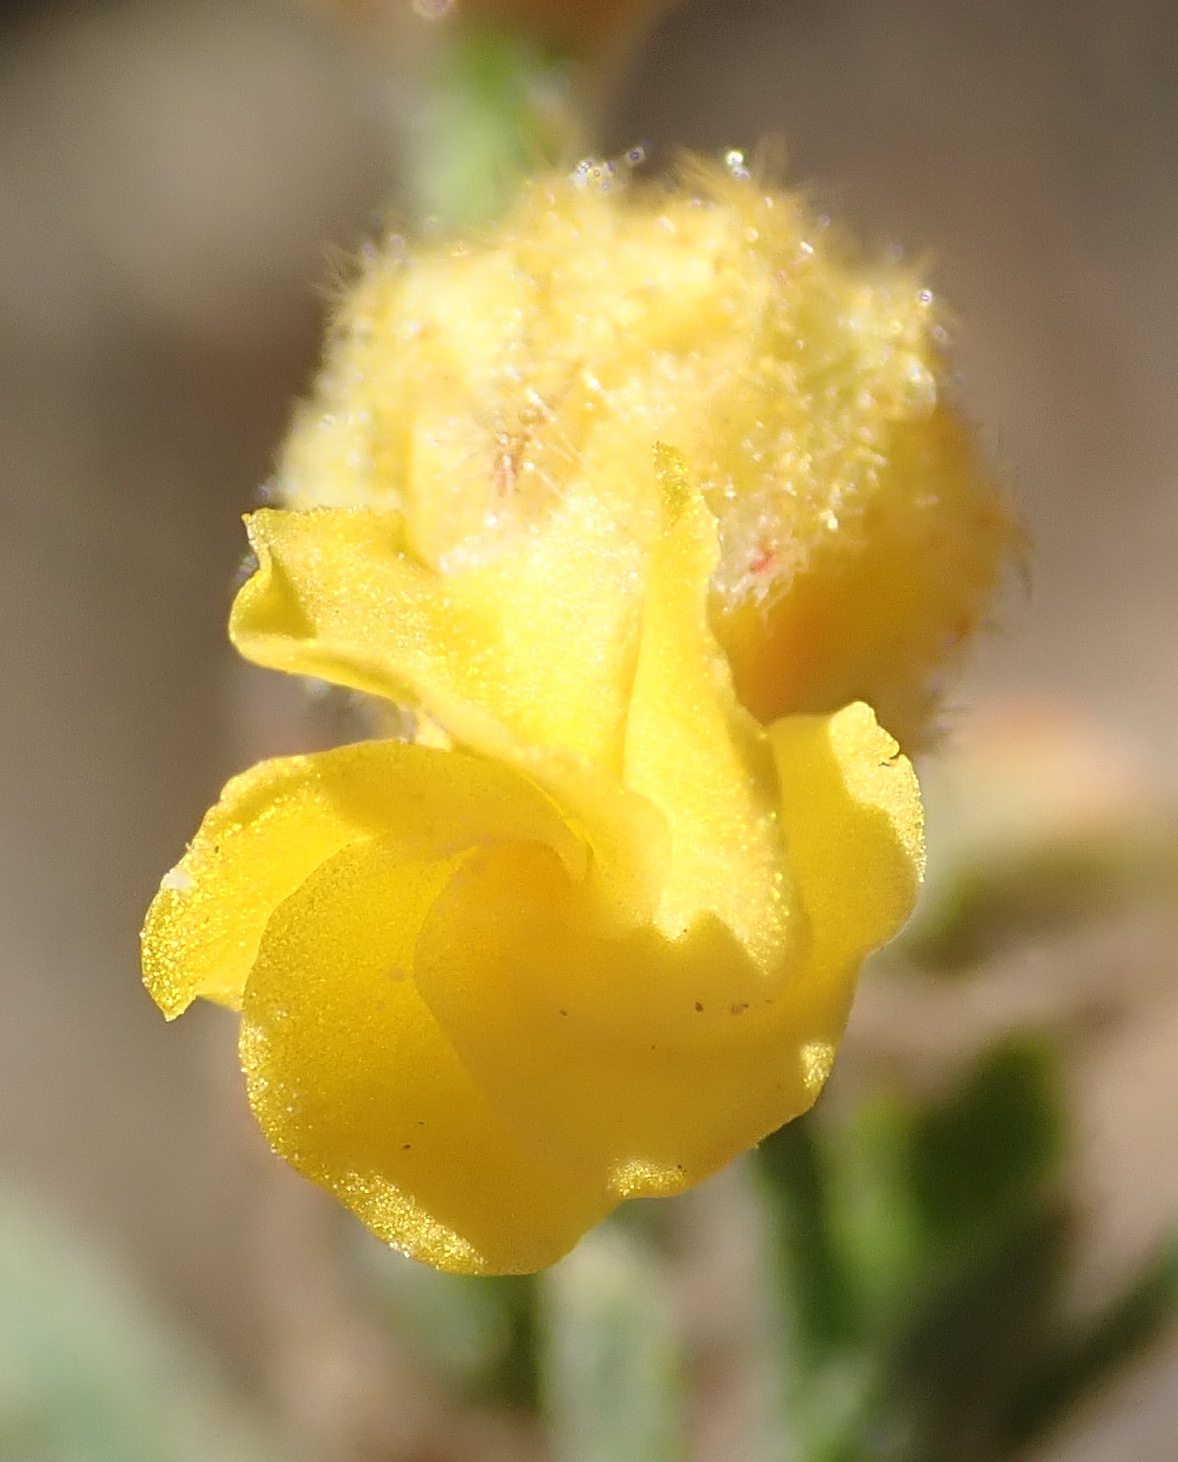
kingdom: Plantae
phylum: Tracheophyta
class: Magnoliopsida
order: Malvales
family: Malvaceae
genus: Hermannia
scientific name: Hermannia stipulacea
